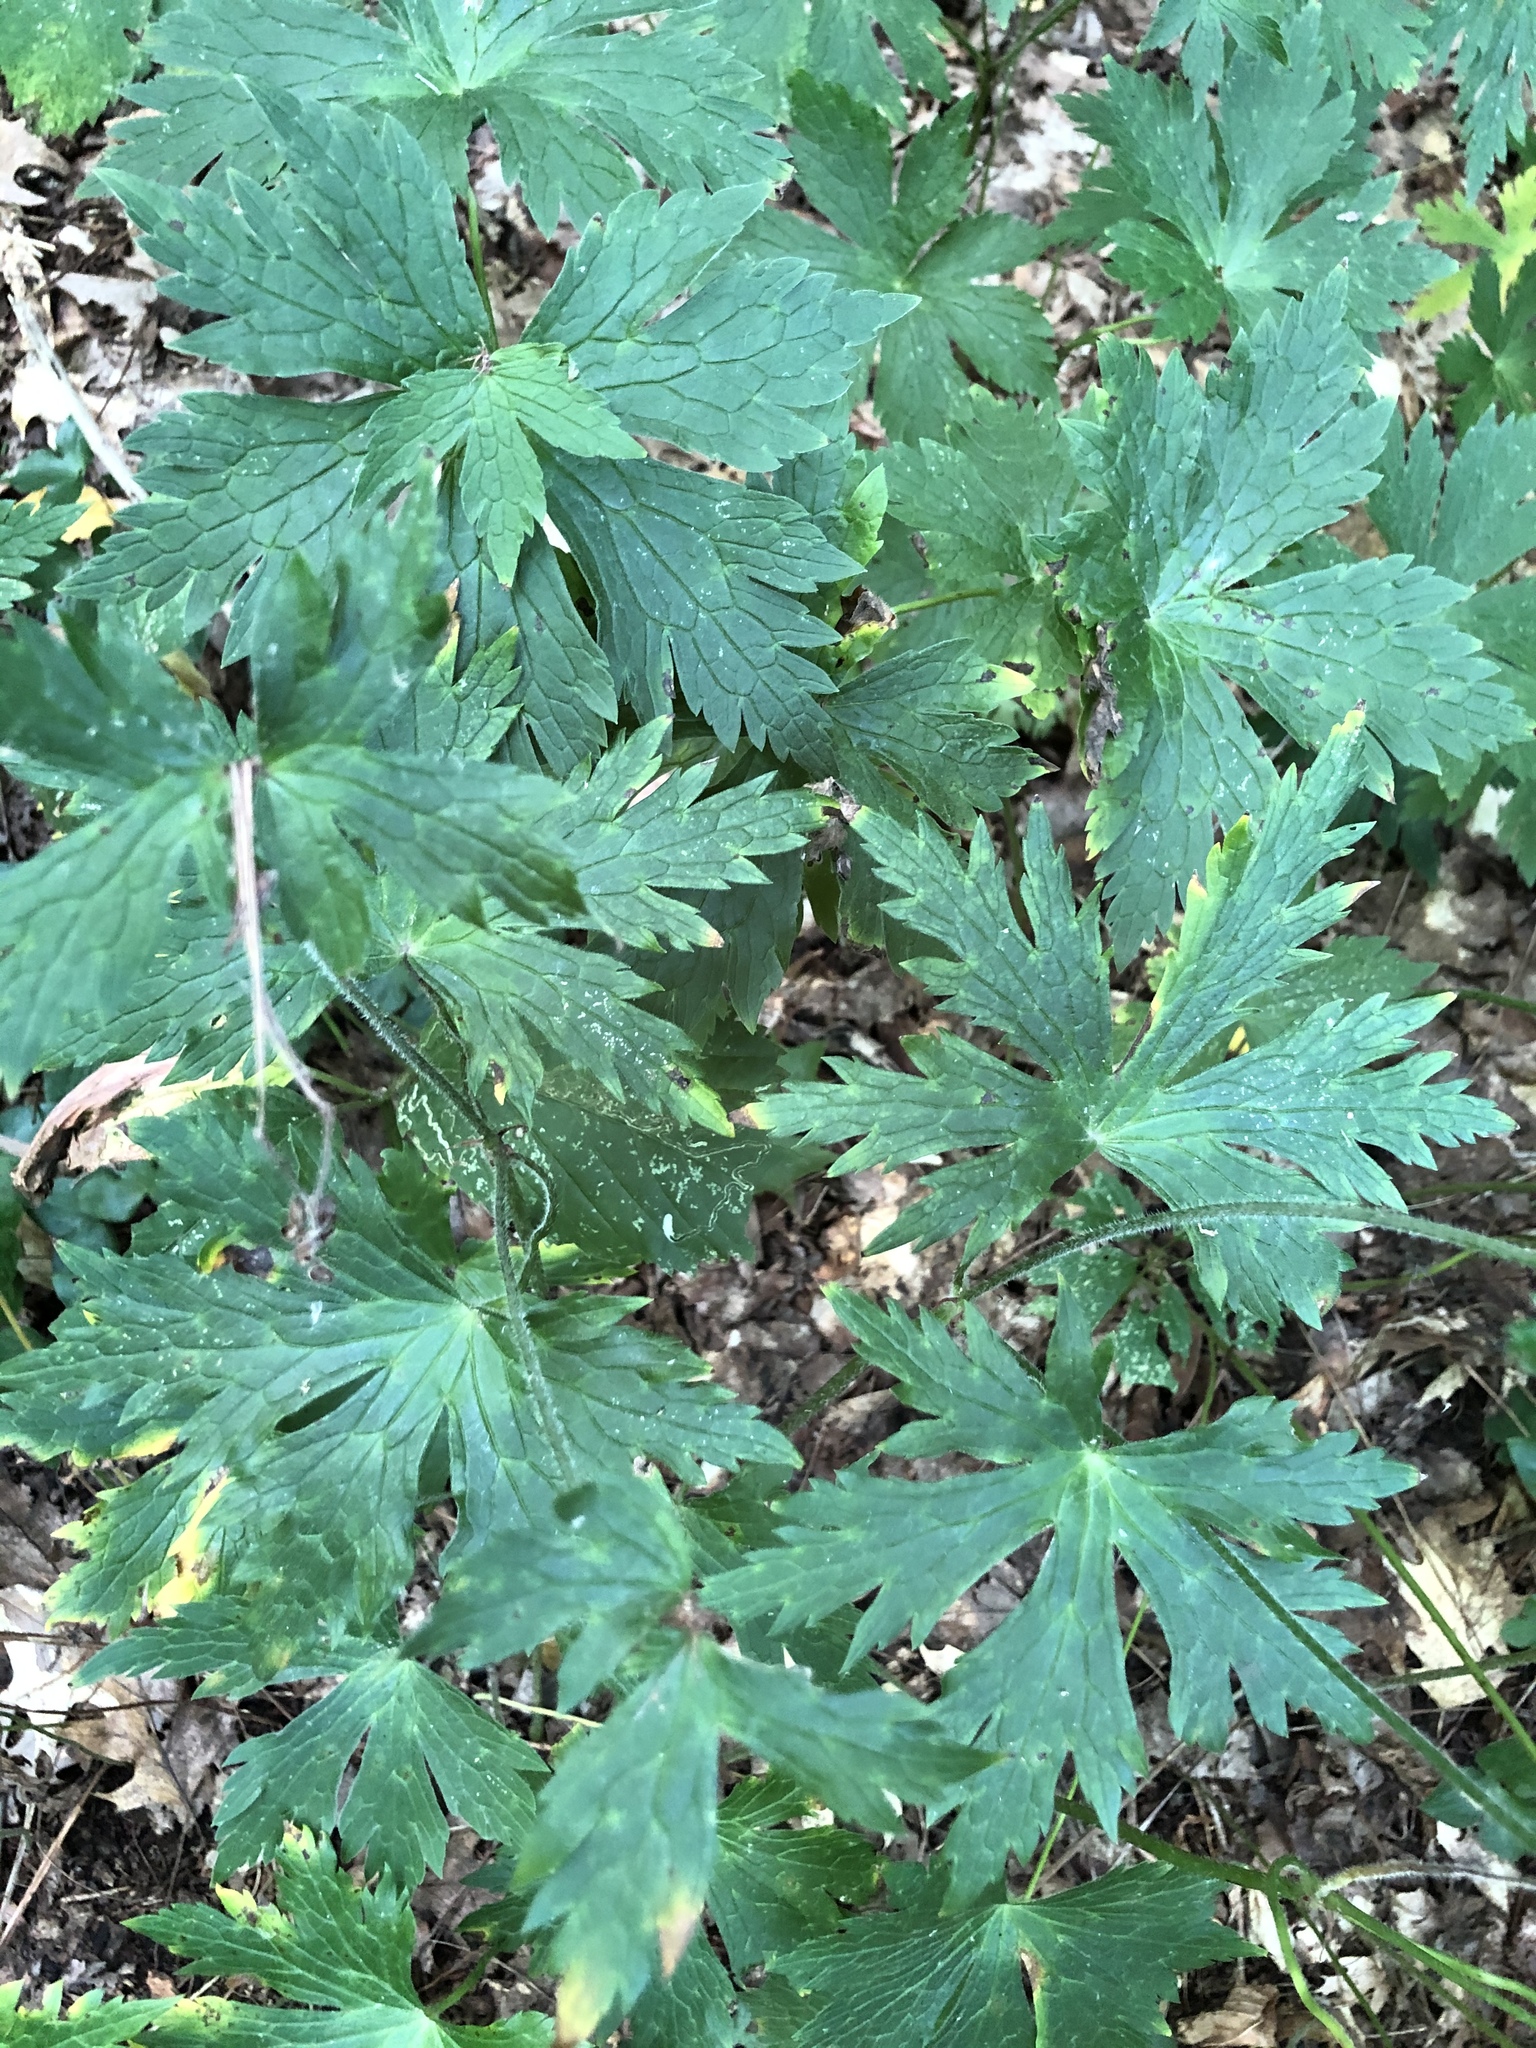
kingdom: Plantae
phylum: Tracheophyta
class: Magnoliopsida
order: Geraniales
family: Geraniaceae
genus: Geranium
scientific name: Geranium maculatum
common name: Spotted geranium
